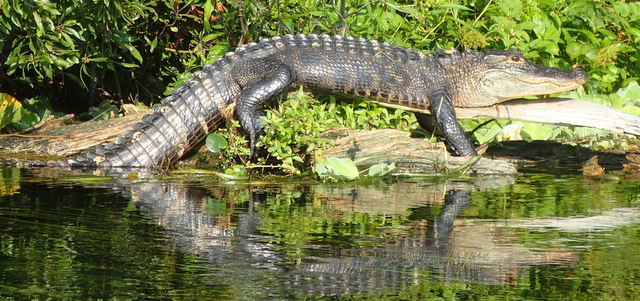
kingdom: Animalia
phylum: Chordata
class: Crocodylia
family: Alligatoridae
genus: Alligator
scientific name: Alligator mississippiensis
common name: American alligator
